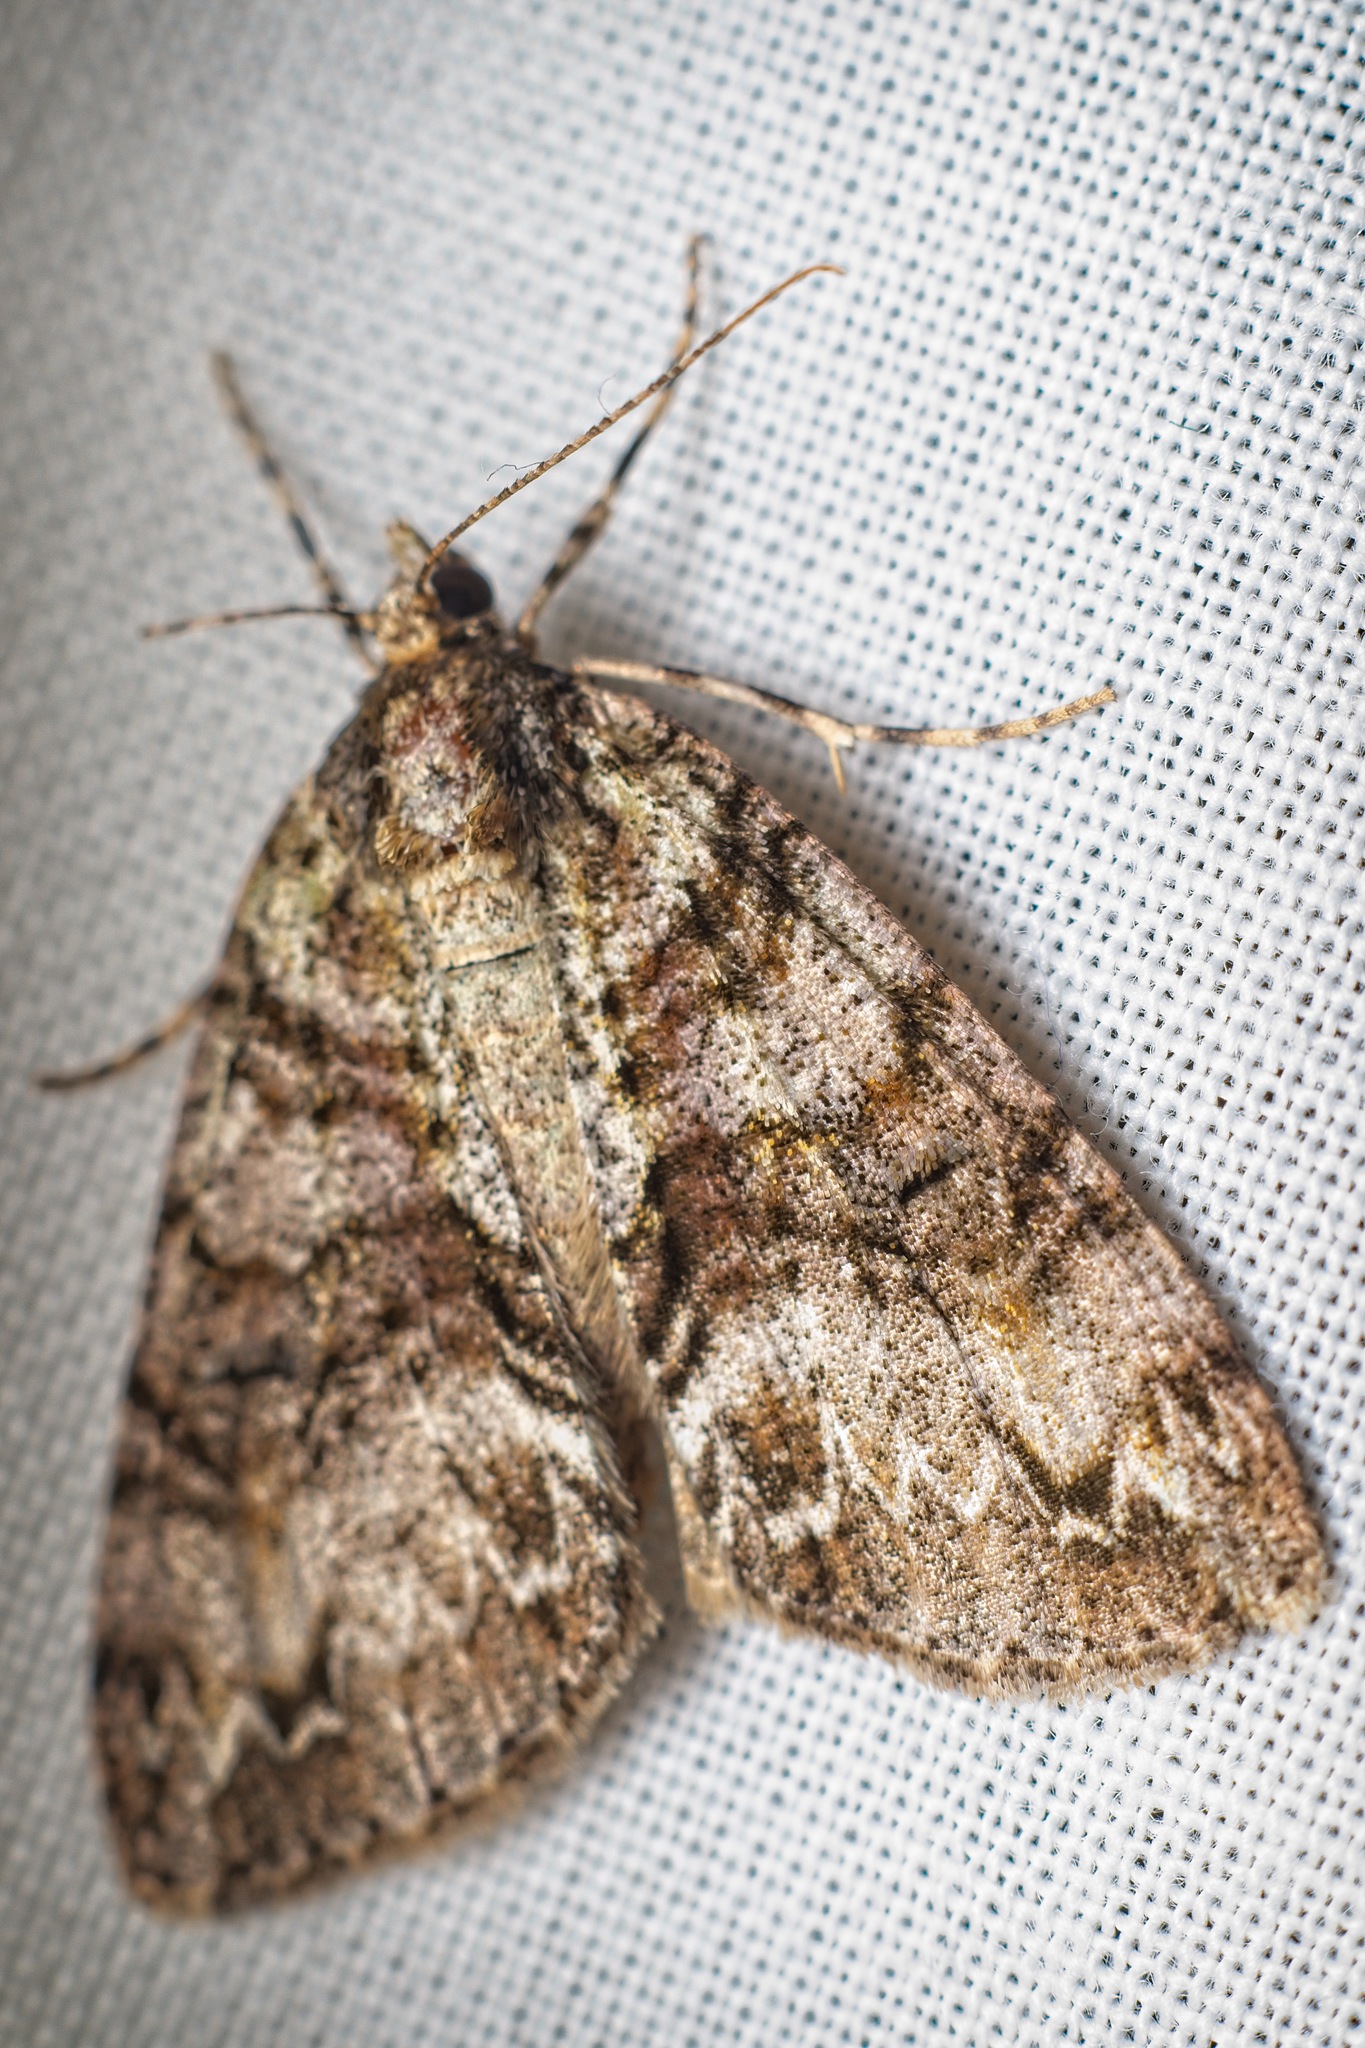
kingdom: Animalia
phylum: Arthropoda
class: Insecta
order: Lepidoptera
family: Geometridae
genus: Pseudocoremia
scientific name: Pseudocoremia suavis
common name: Common forest looper
